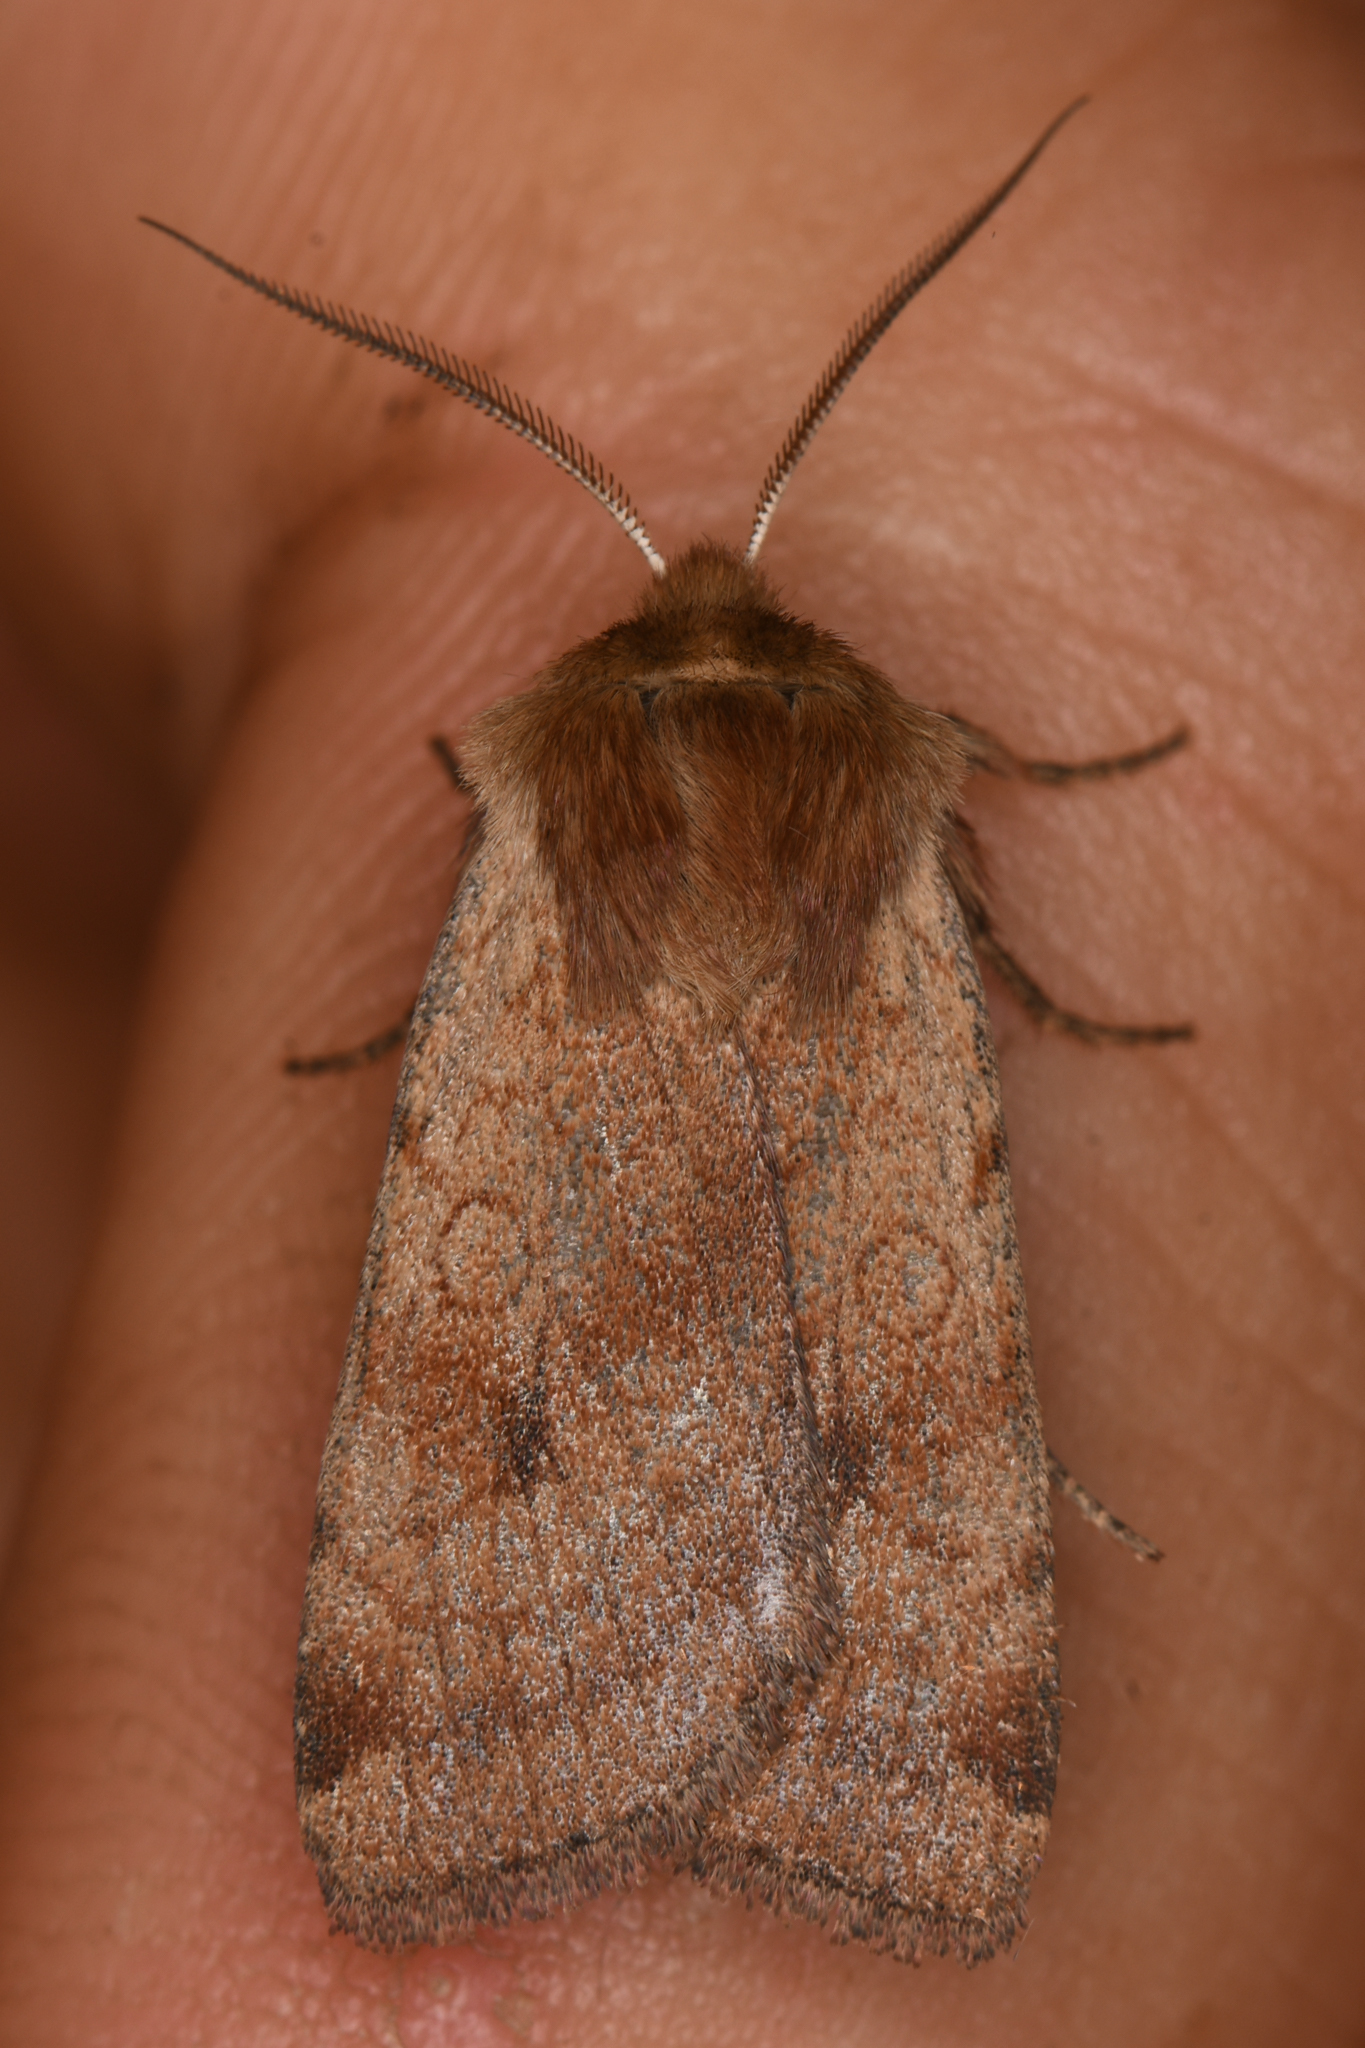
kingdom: Animalia
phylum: Arthropoda
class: Insecta
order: Lepidoptera
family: Noctuidae
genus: Paradiarsia
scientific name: Paradiarsia littoralis
